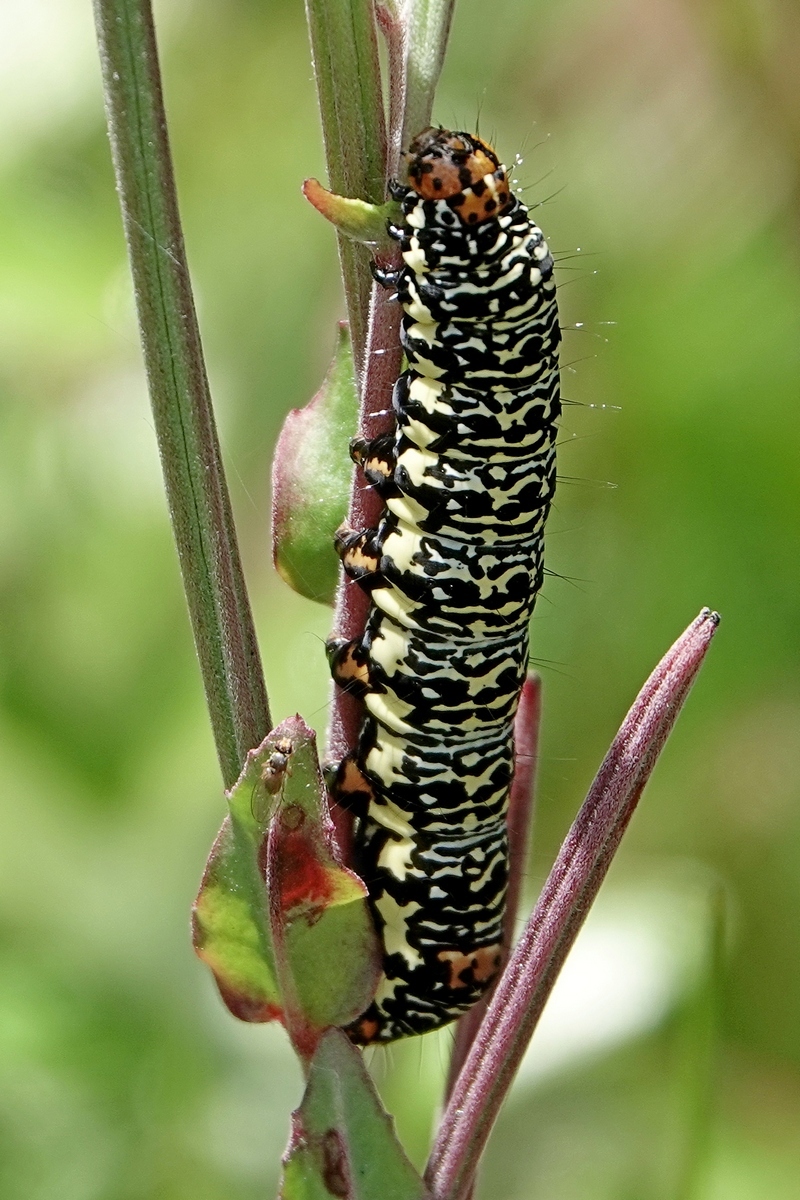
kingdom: Animalia
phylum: Arthropoda
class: Insecta
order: Lepidoptera
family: Noctuidae
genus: Phalaenoides
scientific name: Phalaenoides tristifica
